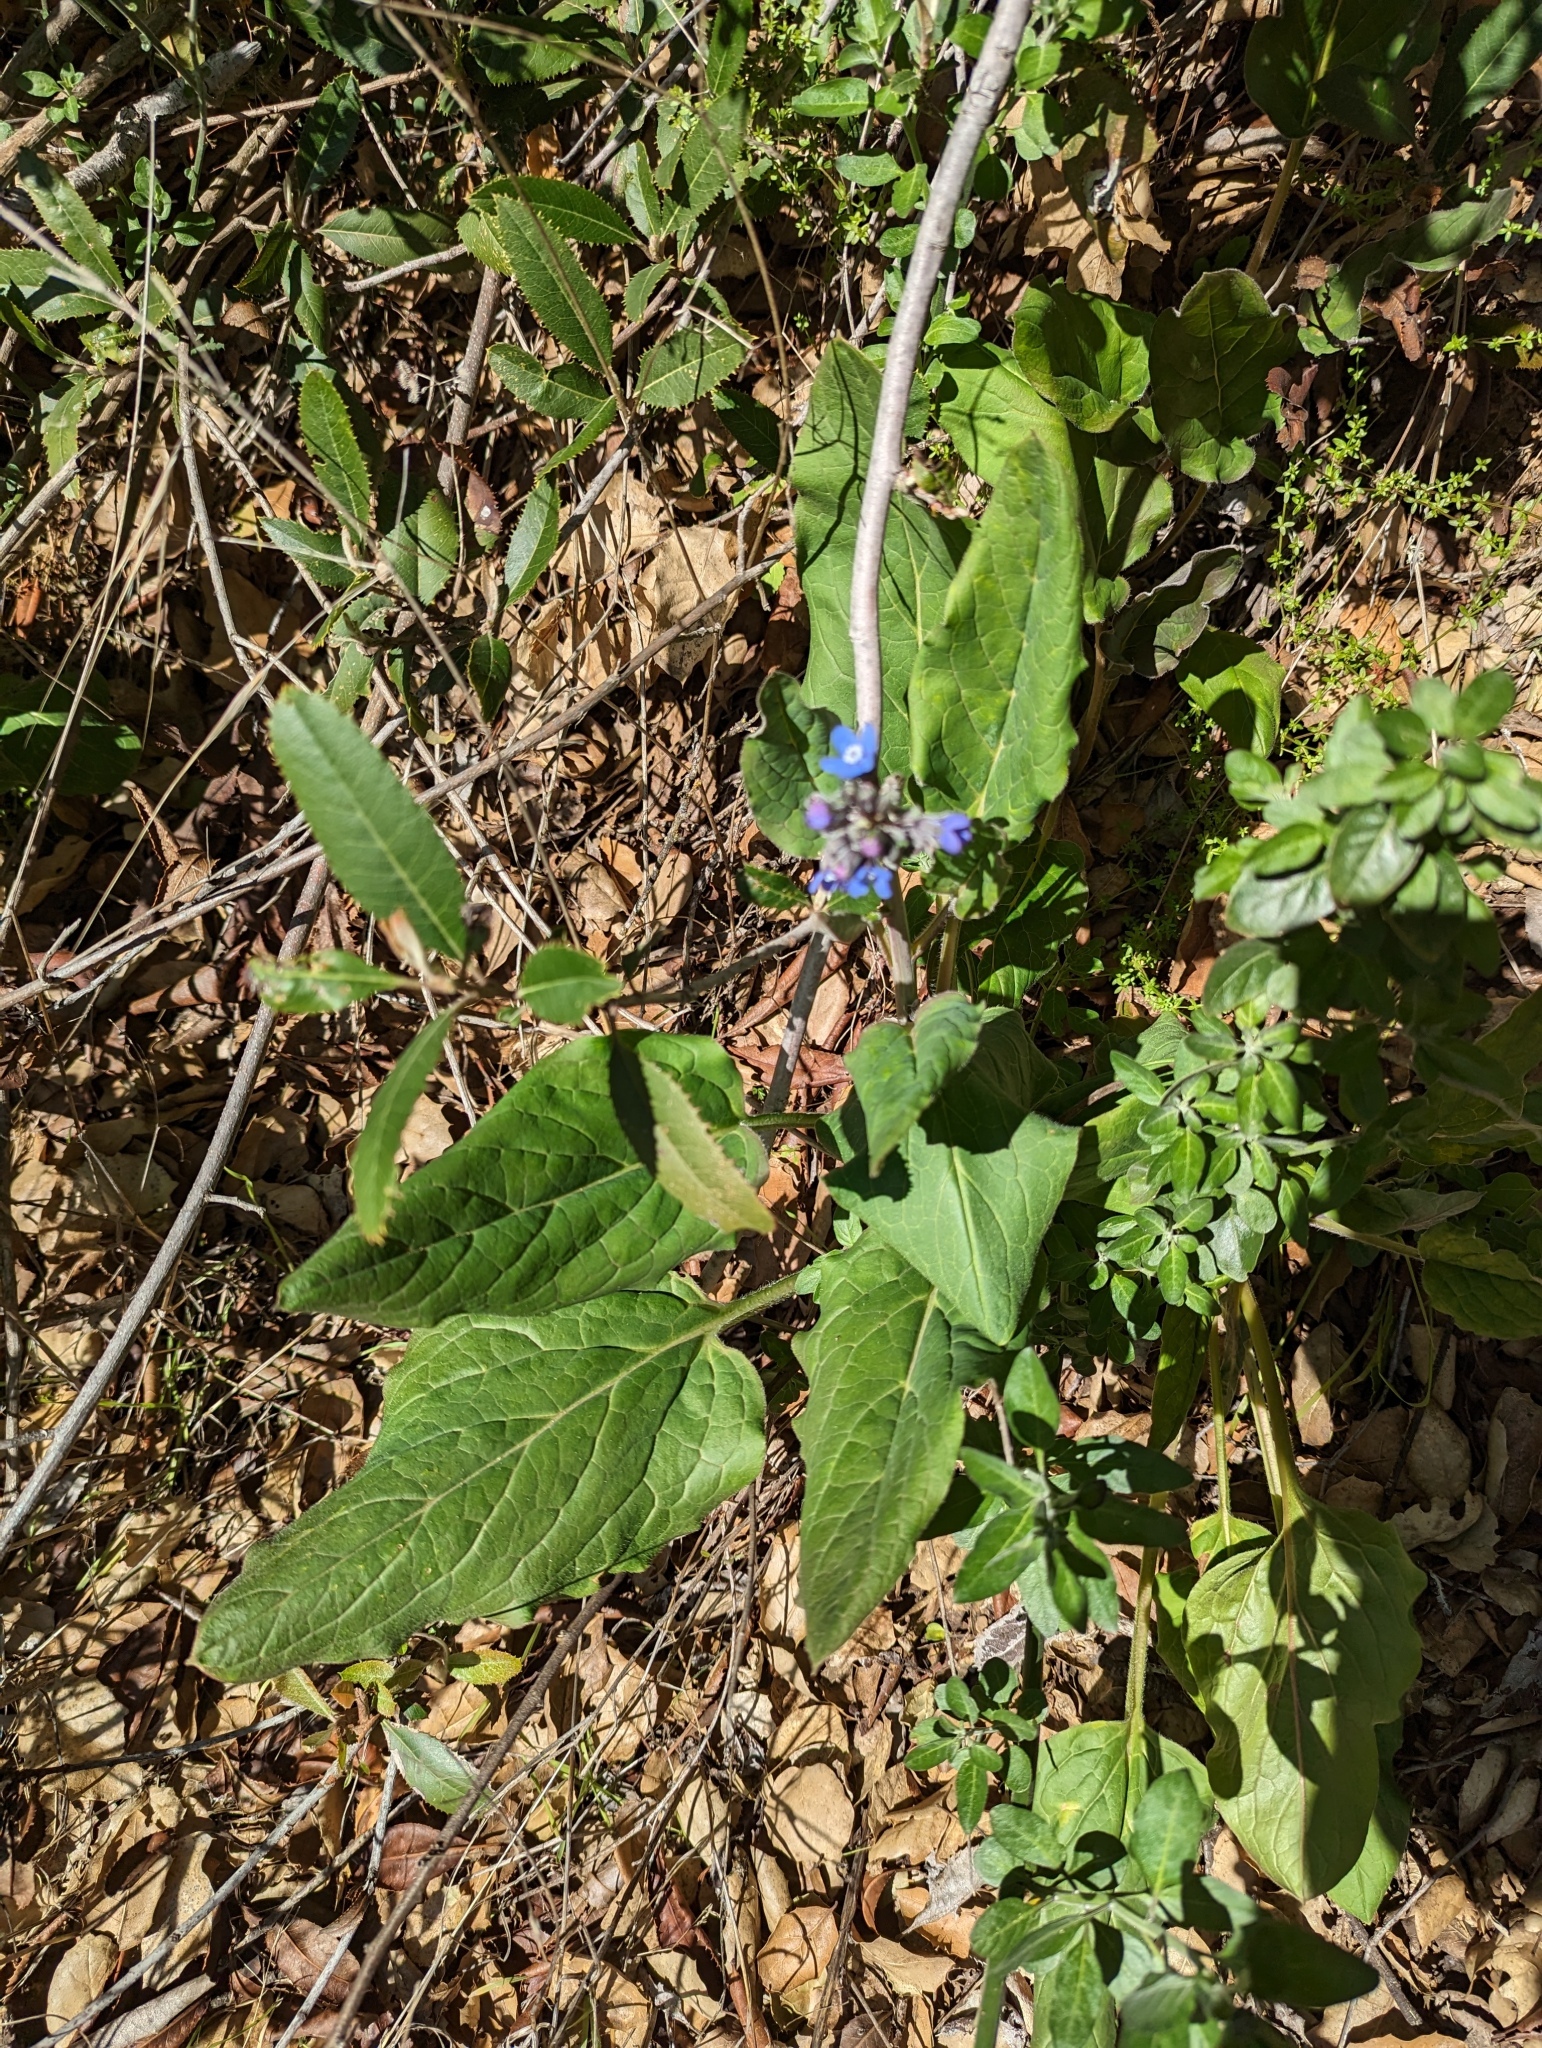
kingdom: Plantae
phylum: Tracheophyta
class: Magnoliopsida
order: Boraginales
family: Boraginaceae
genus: Adelinia
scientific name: Adelinia grande
